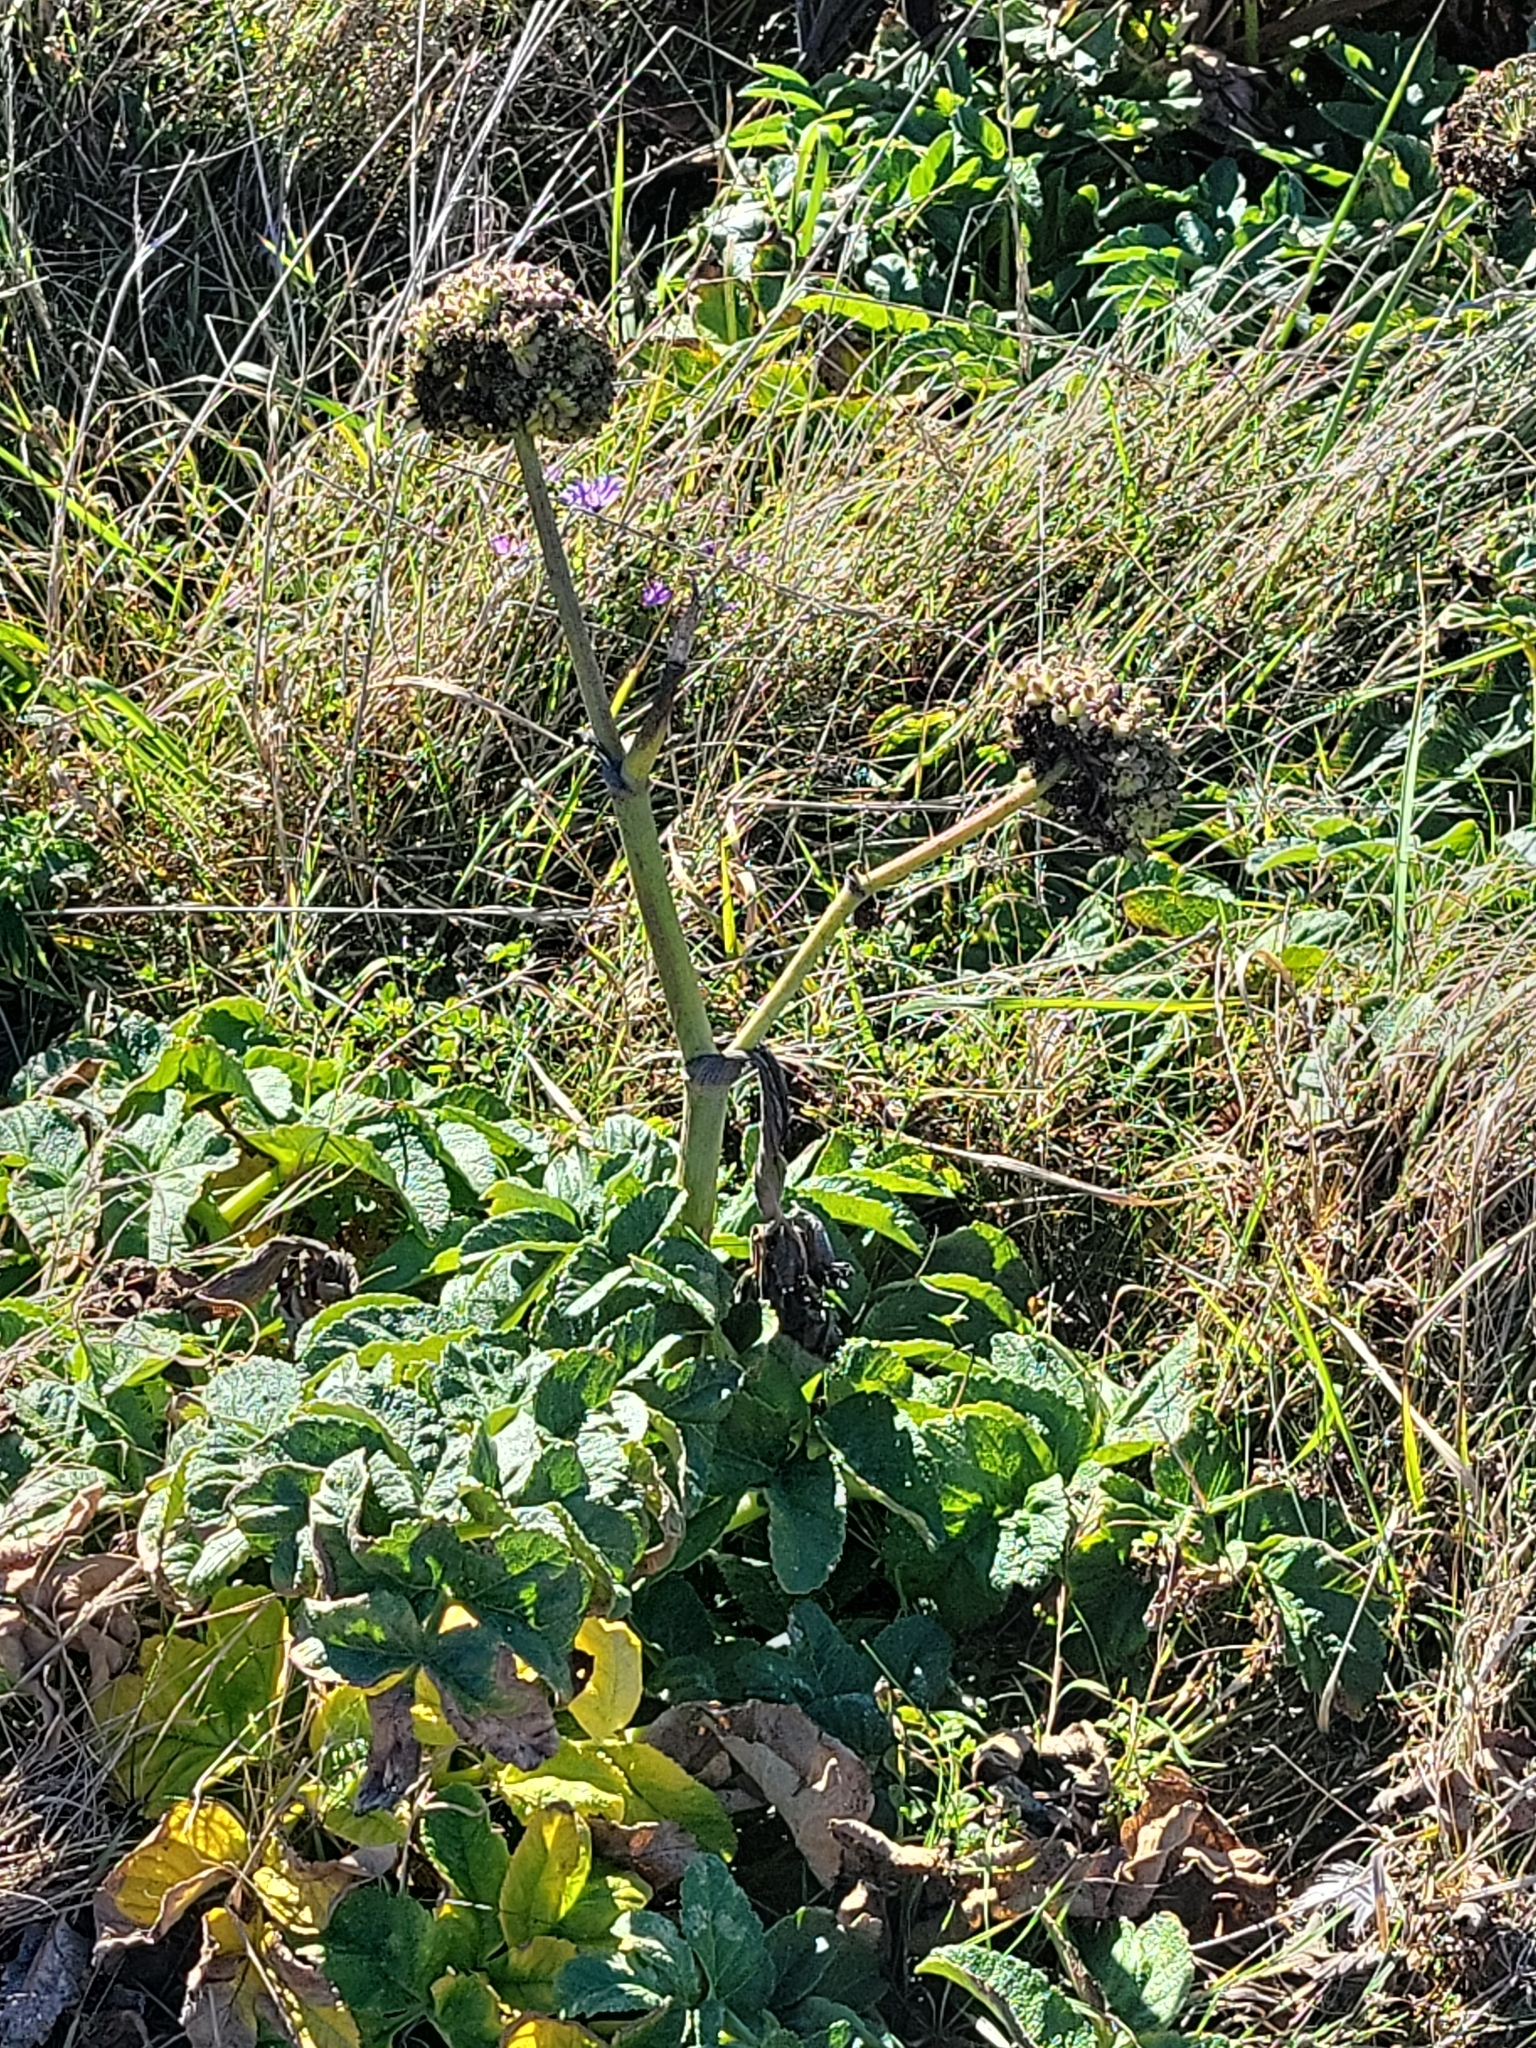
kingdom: Plantae
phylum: Tracheophyta
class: Magnoliopsida
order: Apiales
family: Apiaceae
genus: Angelica
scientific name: Angelica hendersonii
